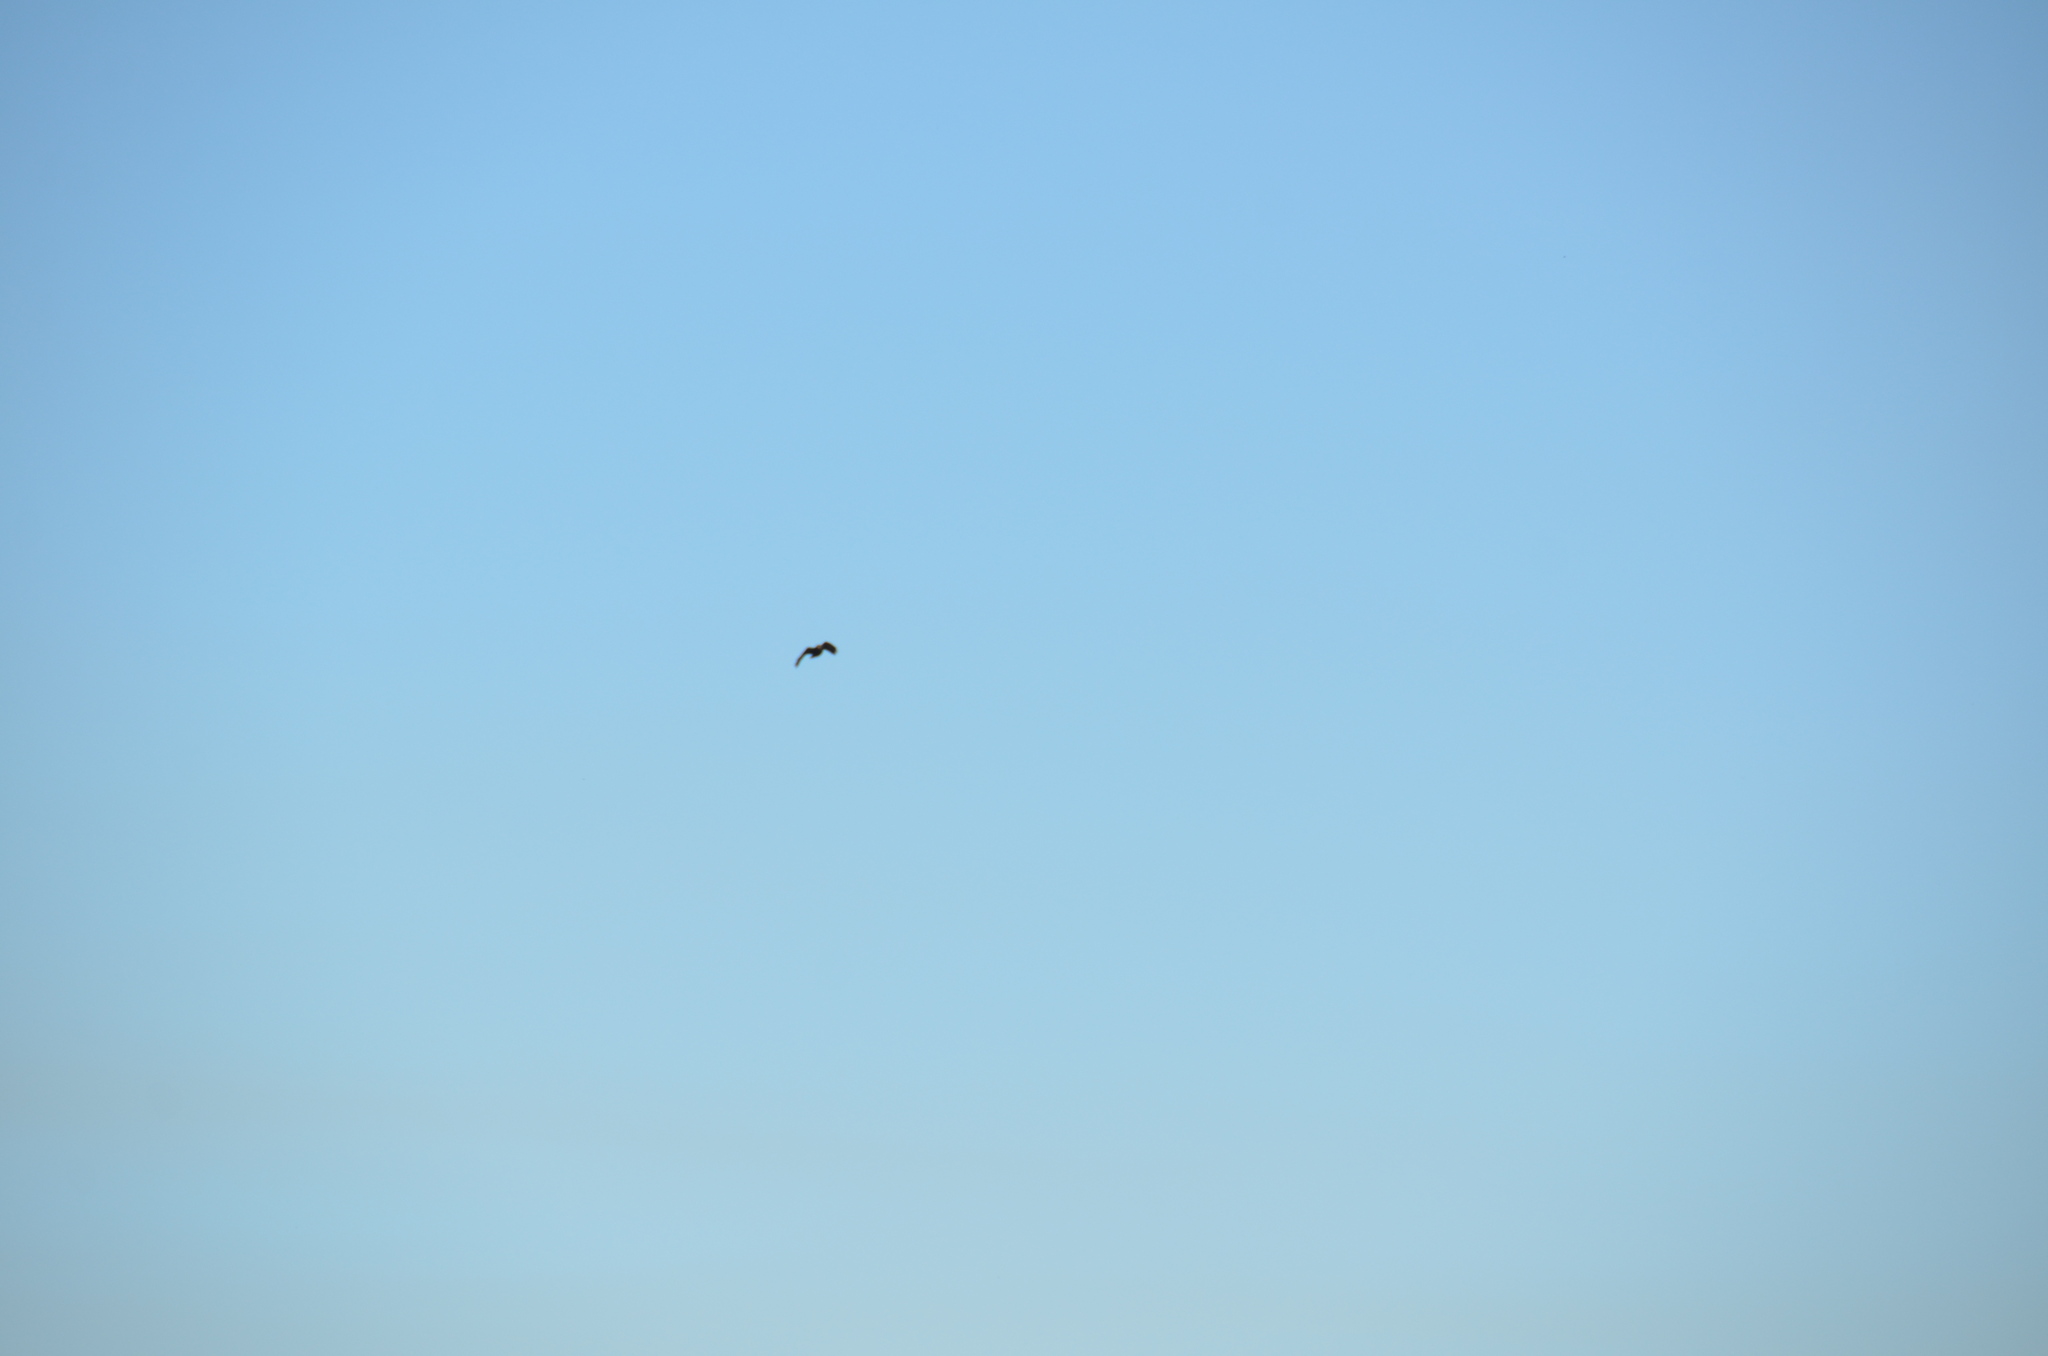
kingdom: Animalia
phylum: Chordata
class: Aves
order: Passeriformes
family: Corvidae
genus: Corvus
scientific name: Corvus brachyrhynchos
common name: American crow
